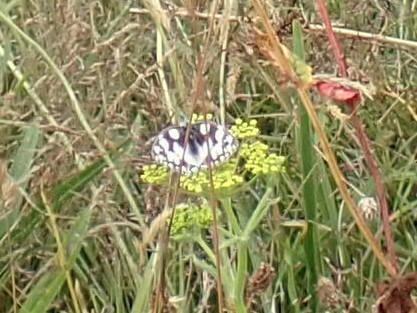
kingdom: Animalia
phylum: Arthropoda
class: Insecta
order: Lepidoptera
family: Nymphalidae
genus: Melanargia
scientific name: Melanargia galathea
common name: Marbled white
